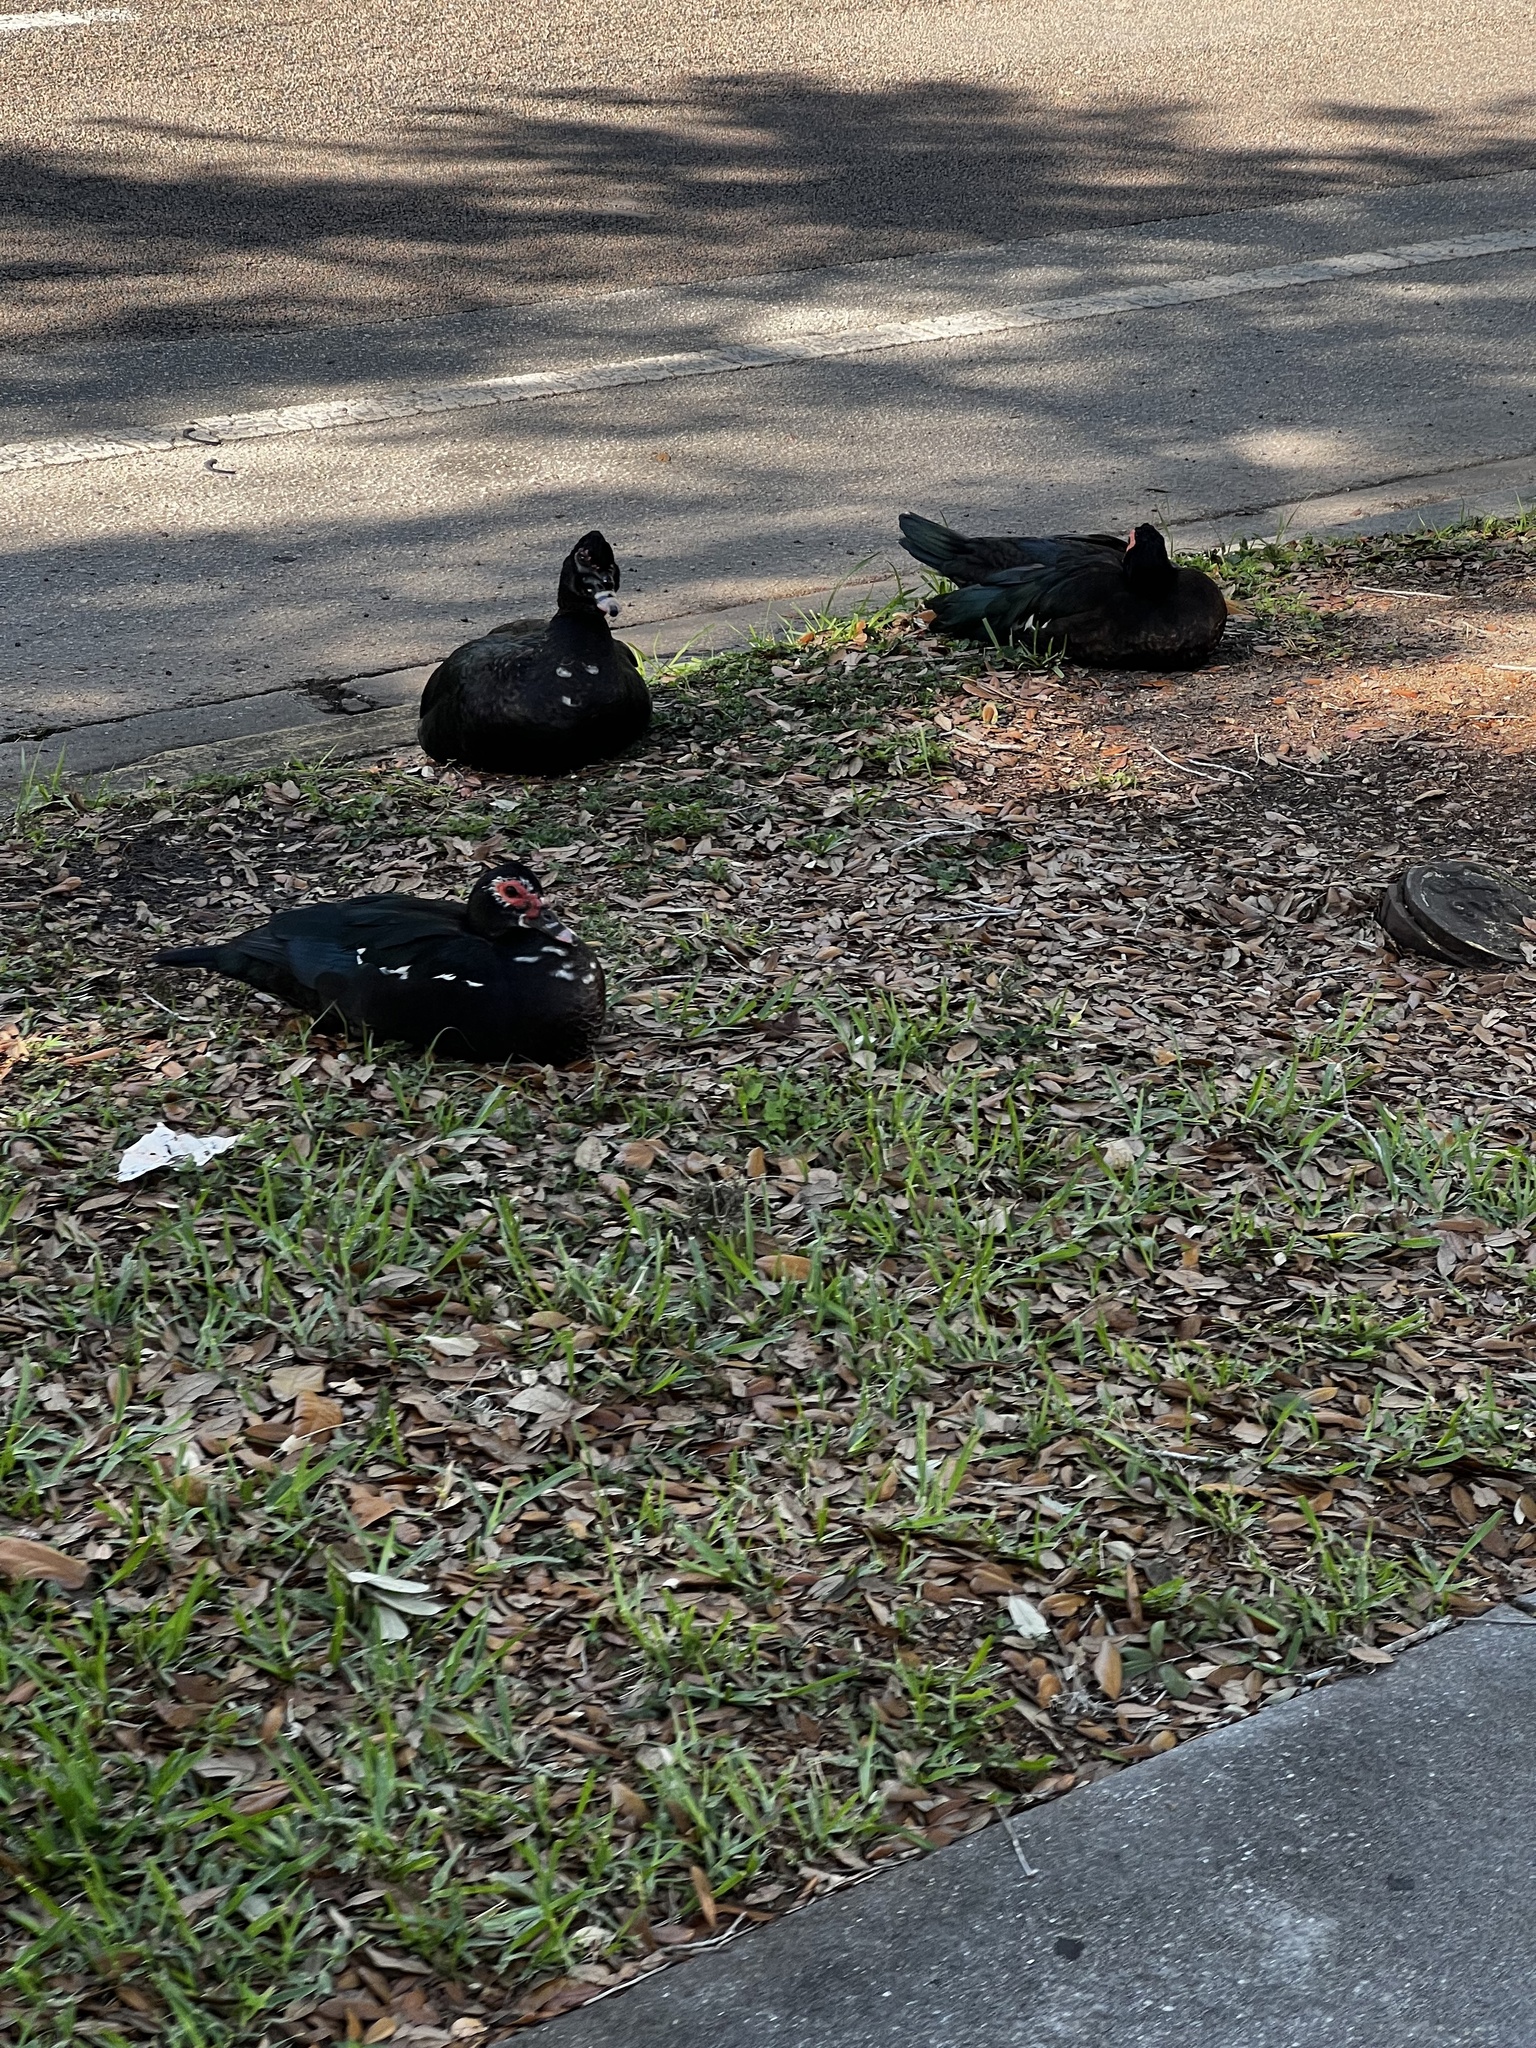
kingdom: Animalia
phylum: Chordata
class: Aves
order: Anseriformes
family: Anatidae
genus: Cairina
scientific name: Cairina moschata
